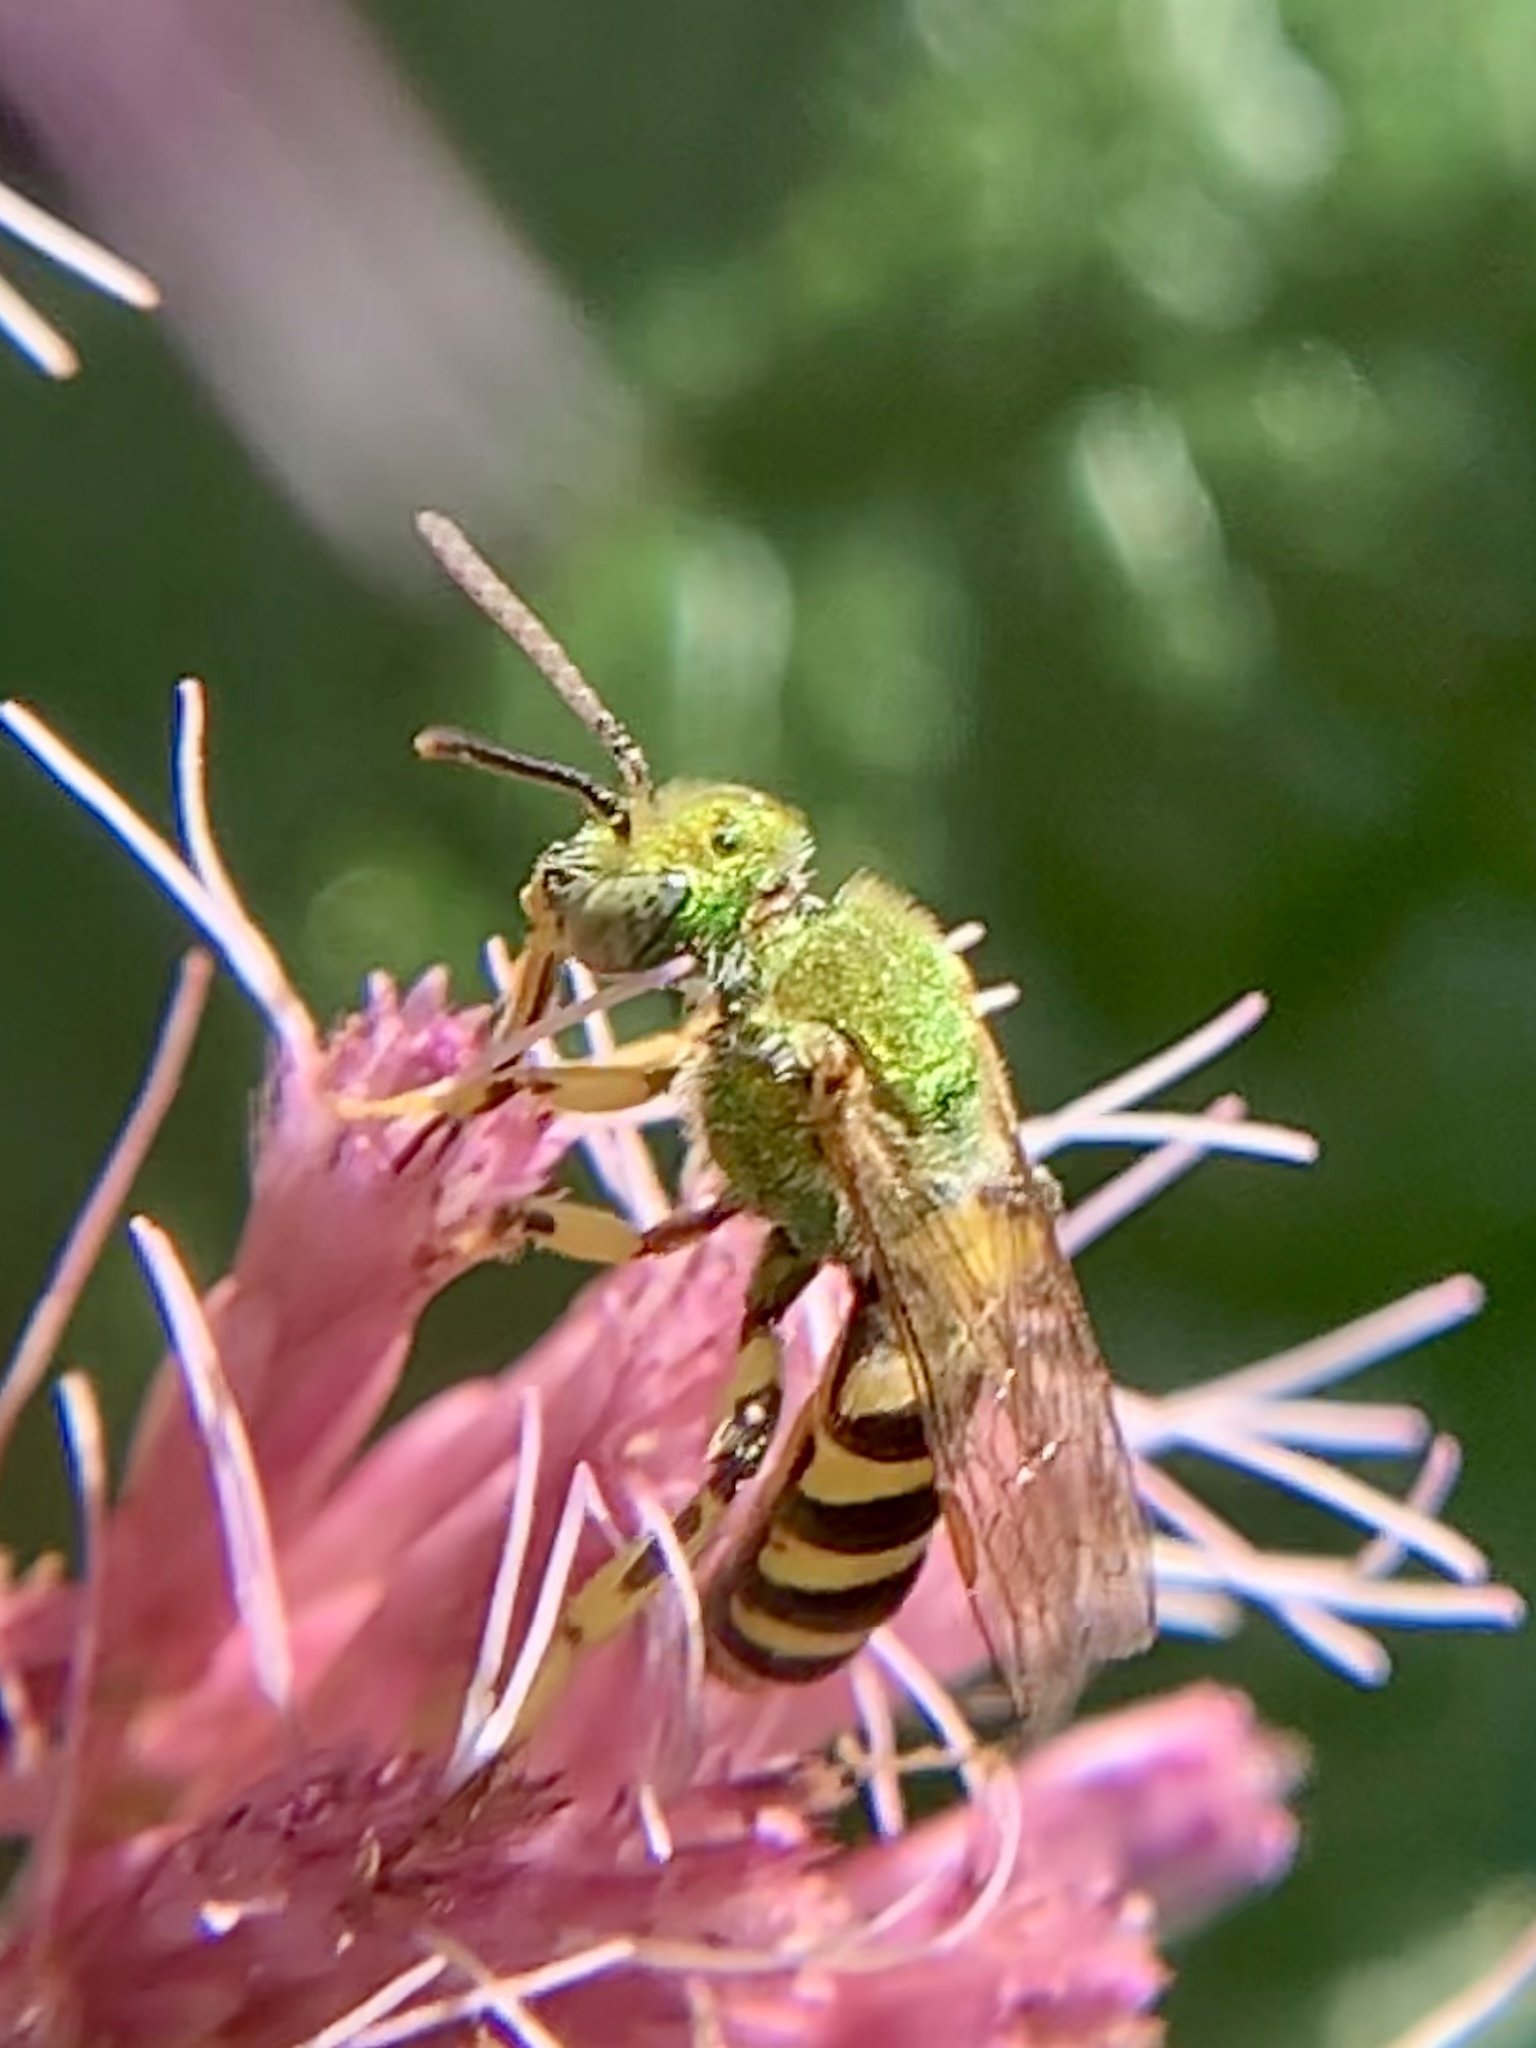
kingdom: Animalia
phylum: Arthropoda
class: Insecta
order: Hymenoptera
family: Halictidae
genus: Agapostemon
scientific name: Agapostemon
